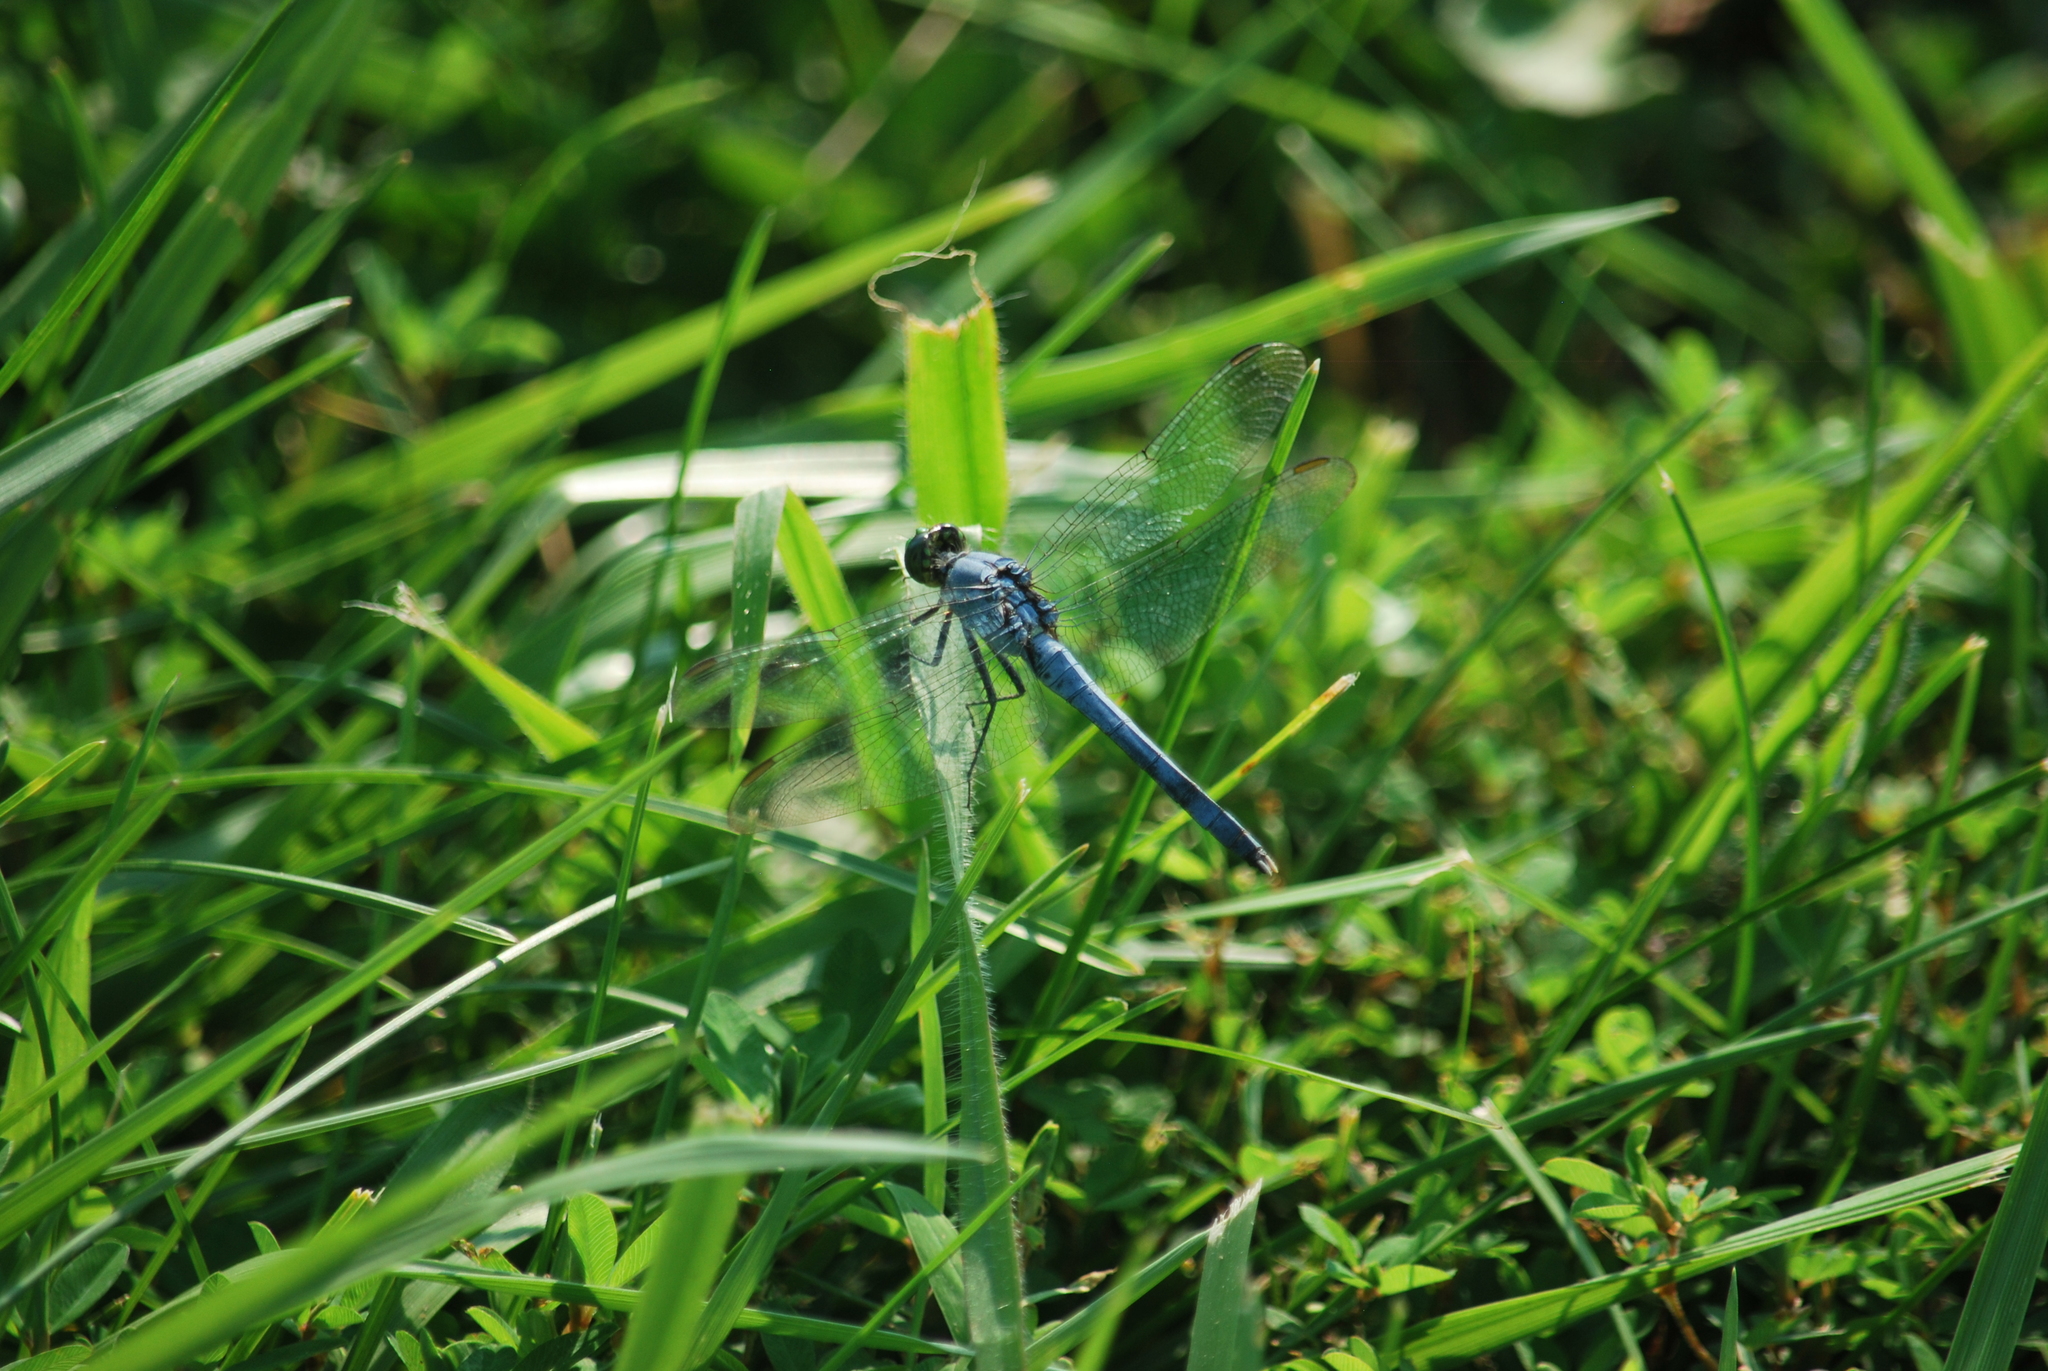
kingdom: Animalia
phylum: Arthropoda
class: Insecta
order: Odonata
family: Libellulidae
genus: Erythemis
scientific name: Erythemis simplicicollis
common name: Eastern pondhawk
